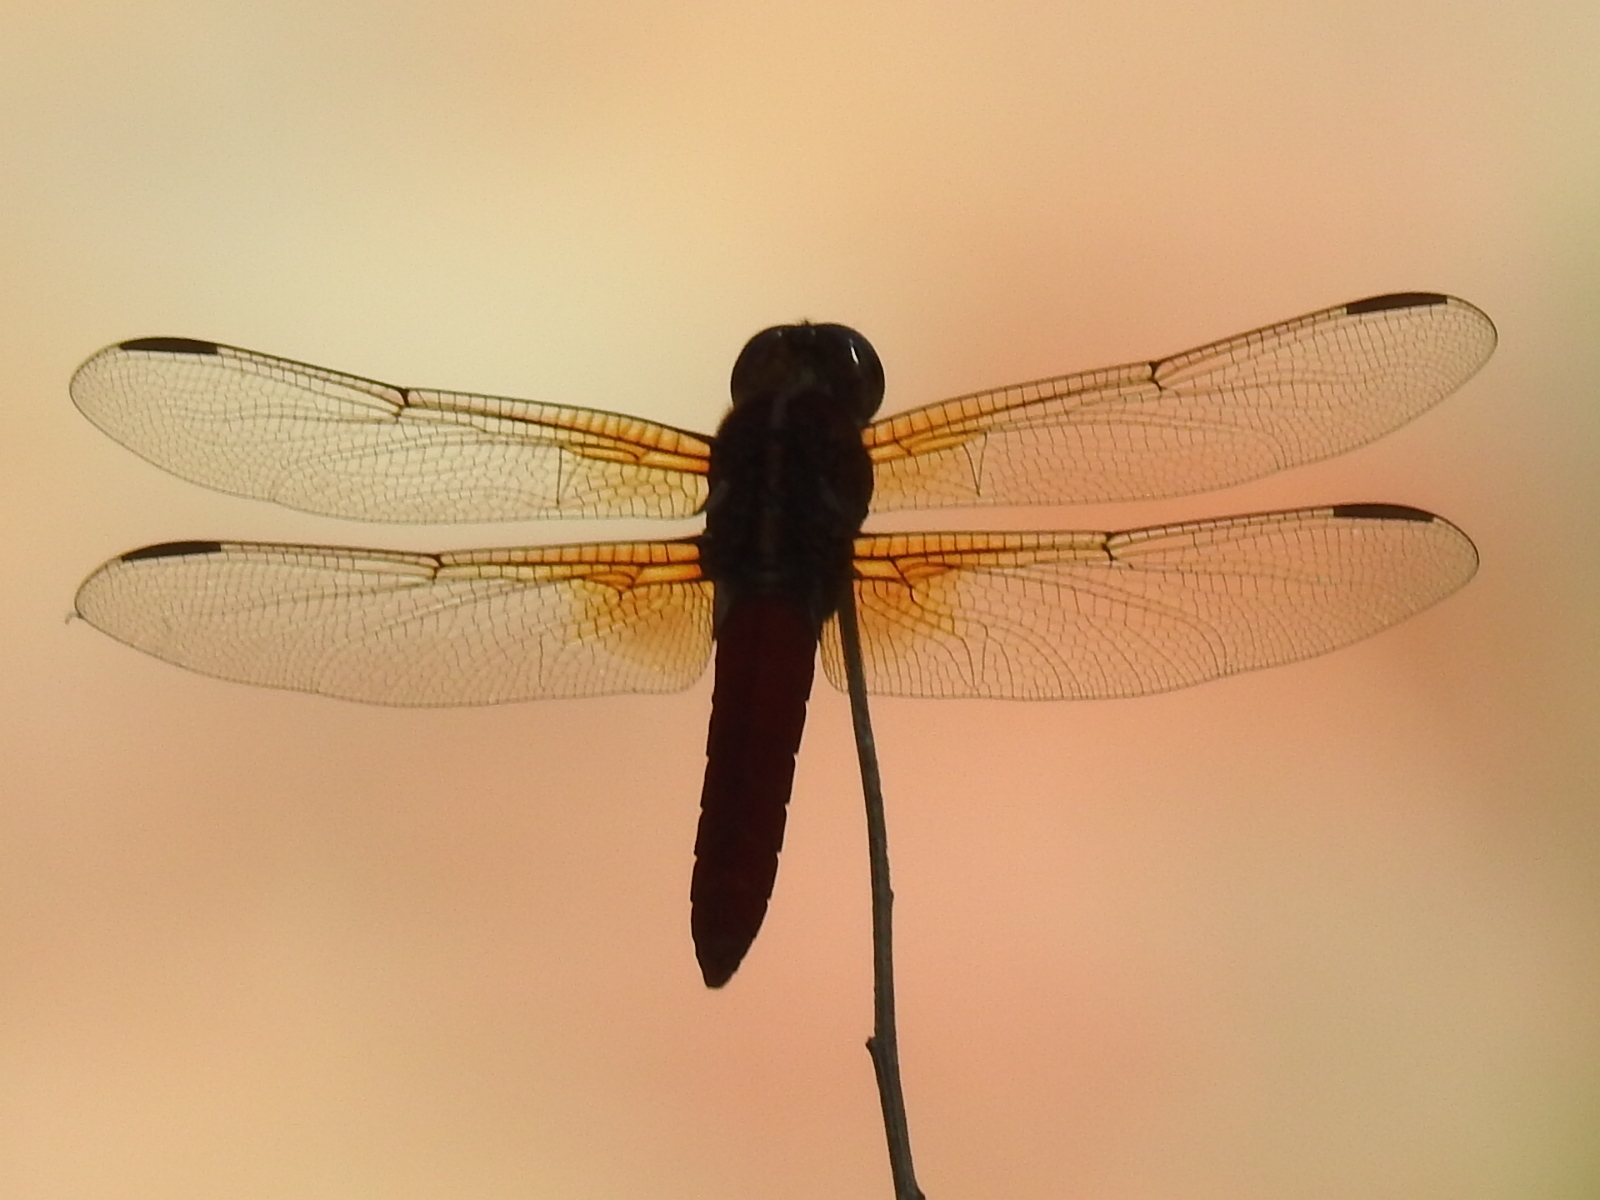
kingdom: Animalia
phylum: Arthropoda
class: Insecta
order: Odonata
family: Libellulidae
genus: Libellula
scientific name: Libellula croceipennis
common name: Neon skimmer
